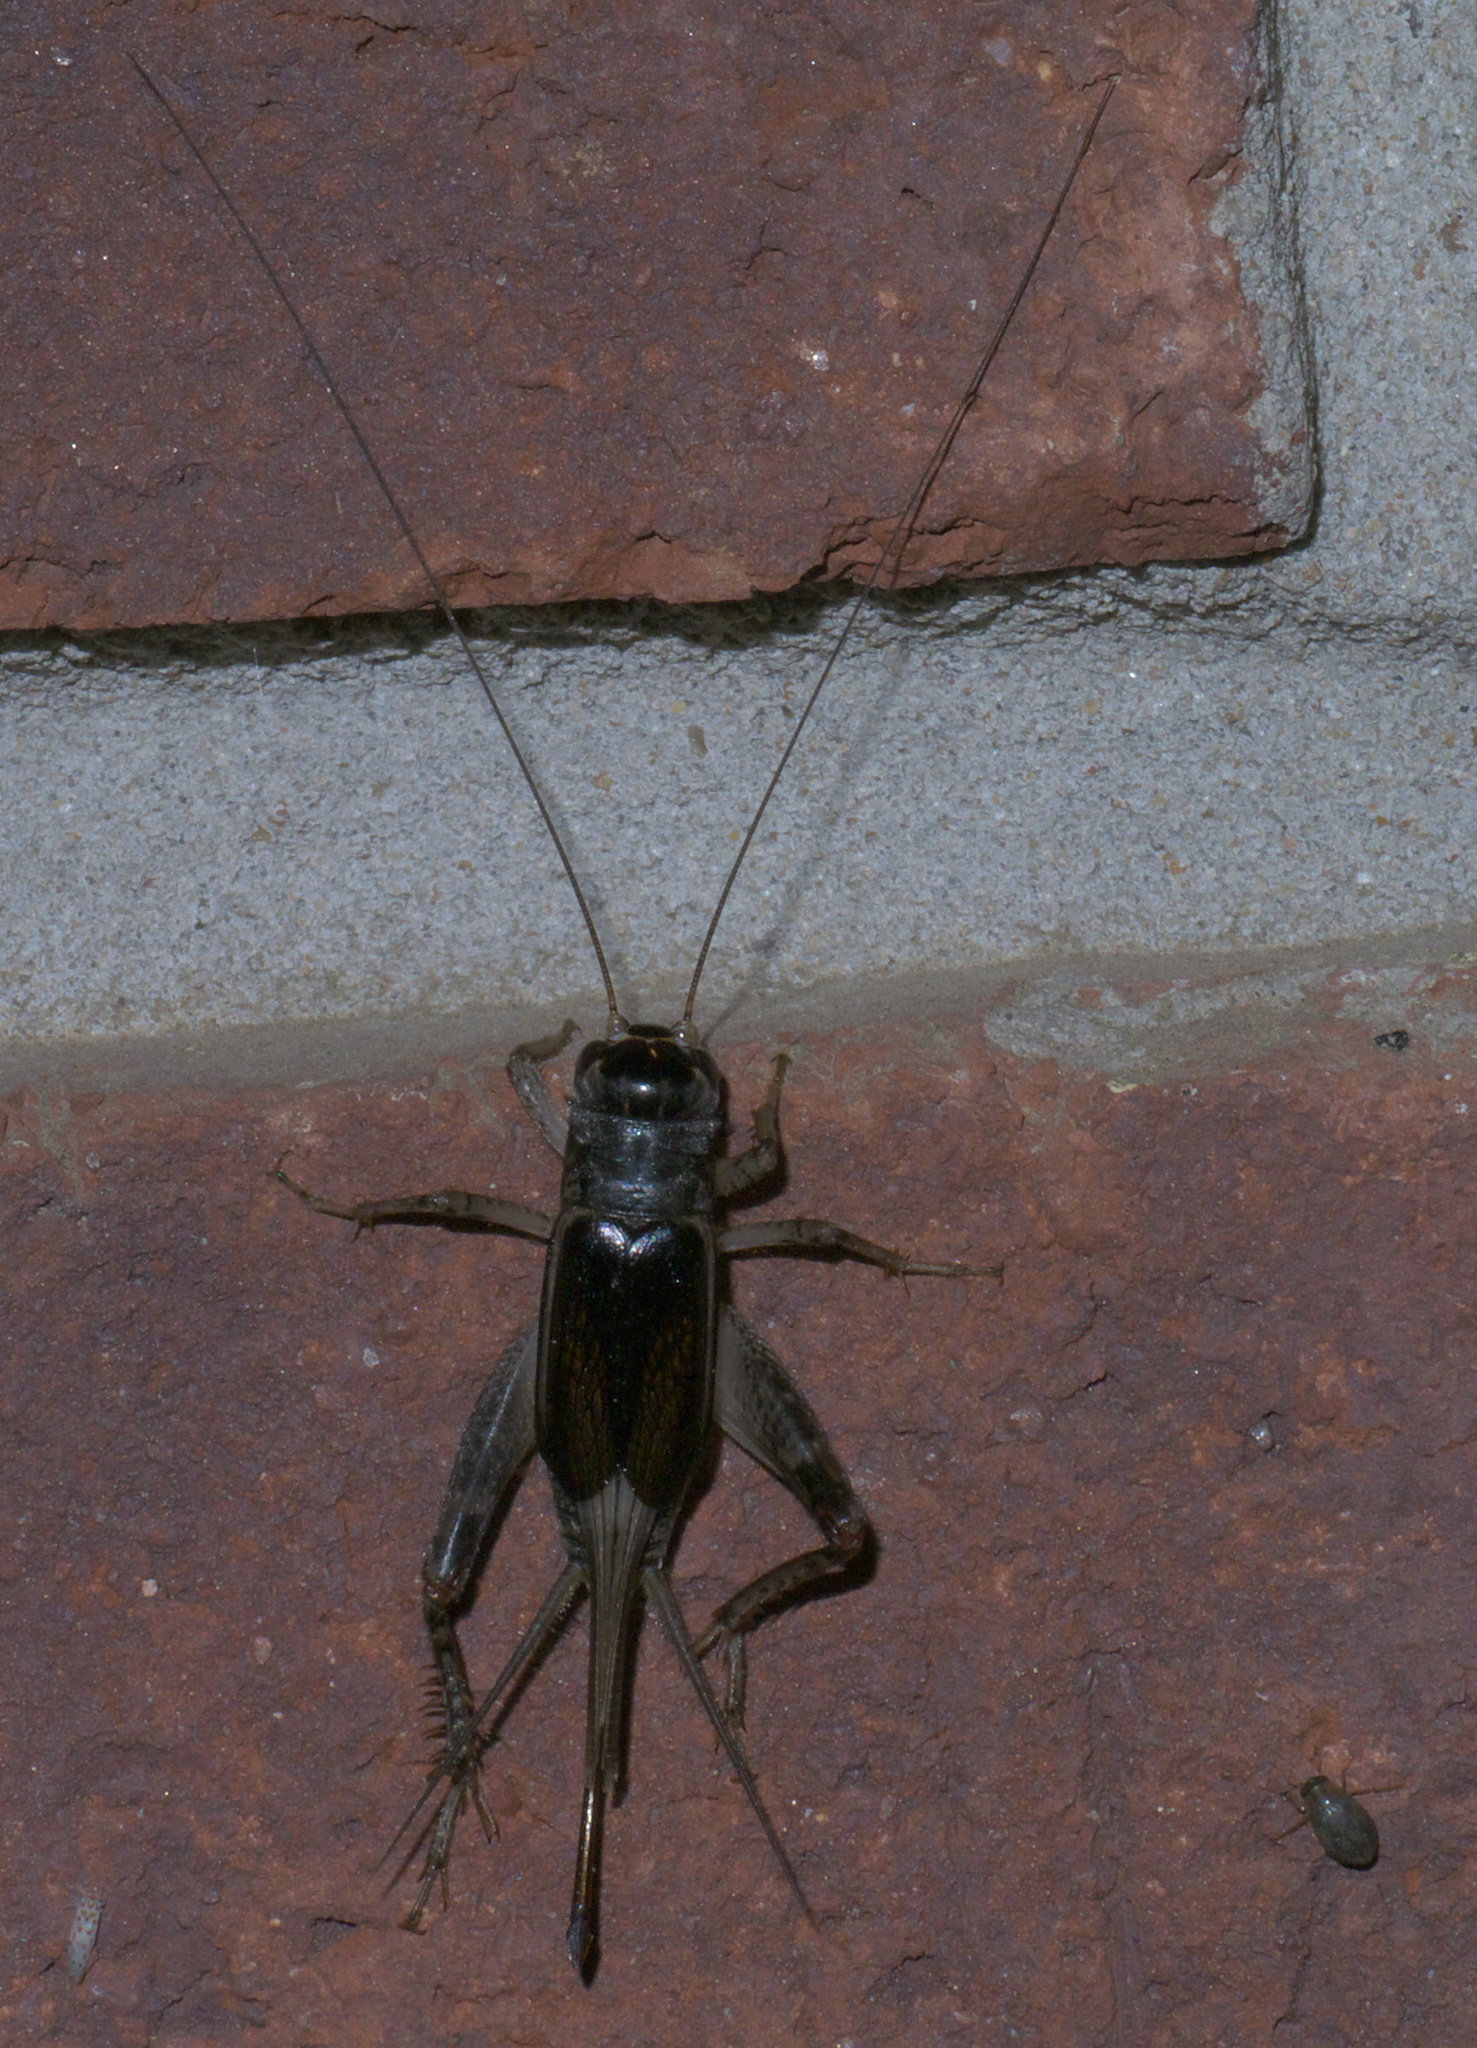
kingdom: Animalia
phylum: Arthropoda
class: Insecta
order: Orthoptera
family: Gryllidae
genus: Velarifictorus
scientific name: Velarifictorus micado
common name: Japanese burrowing cricket
